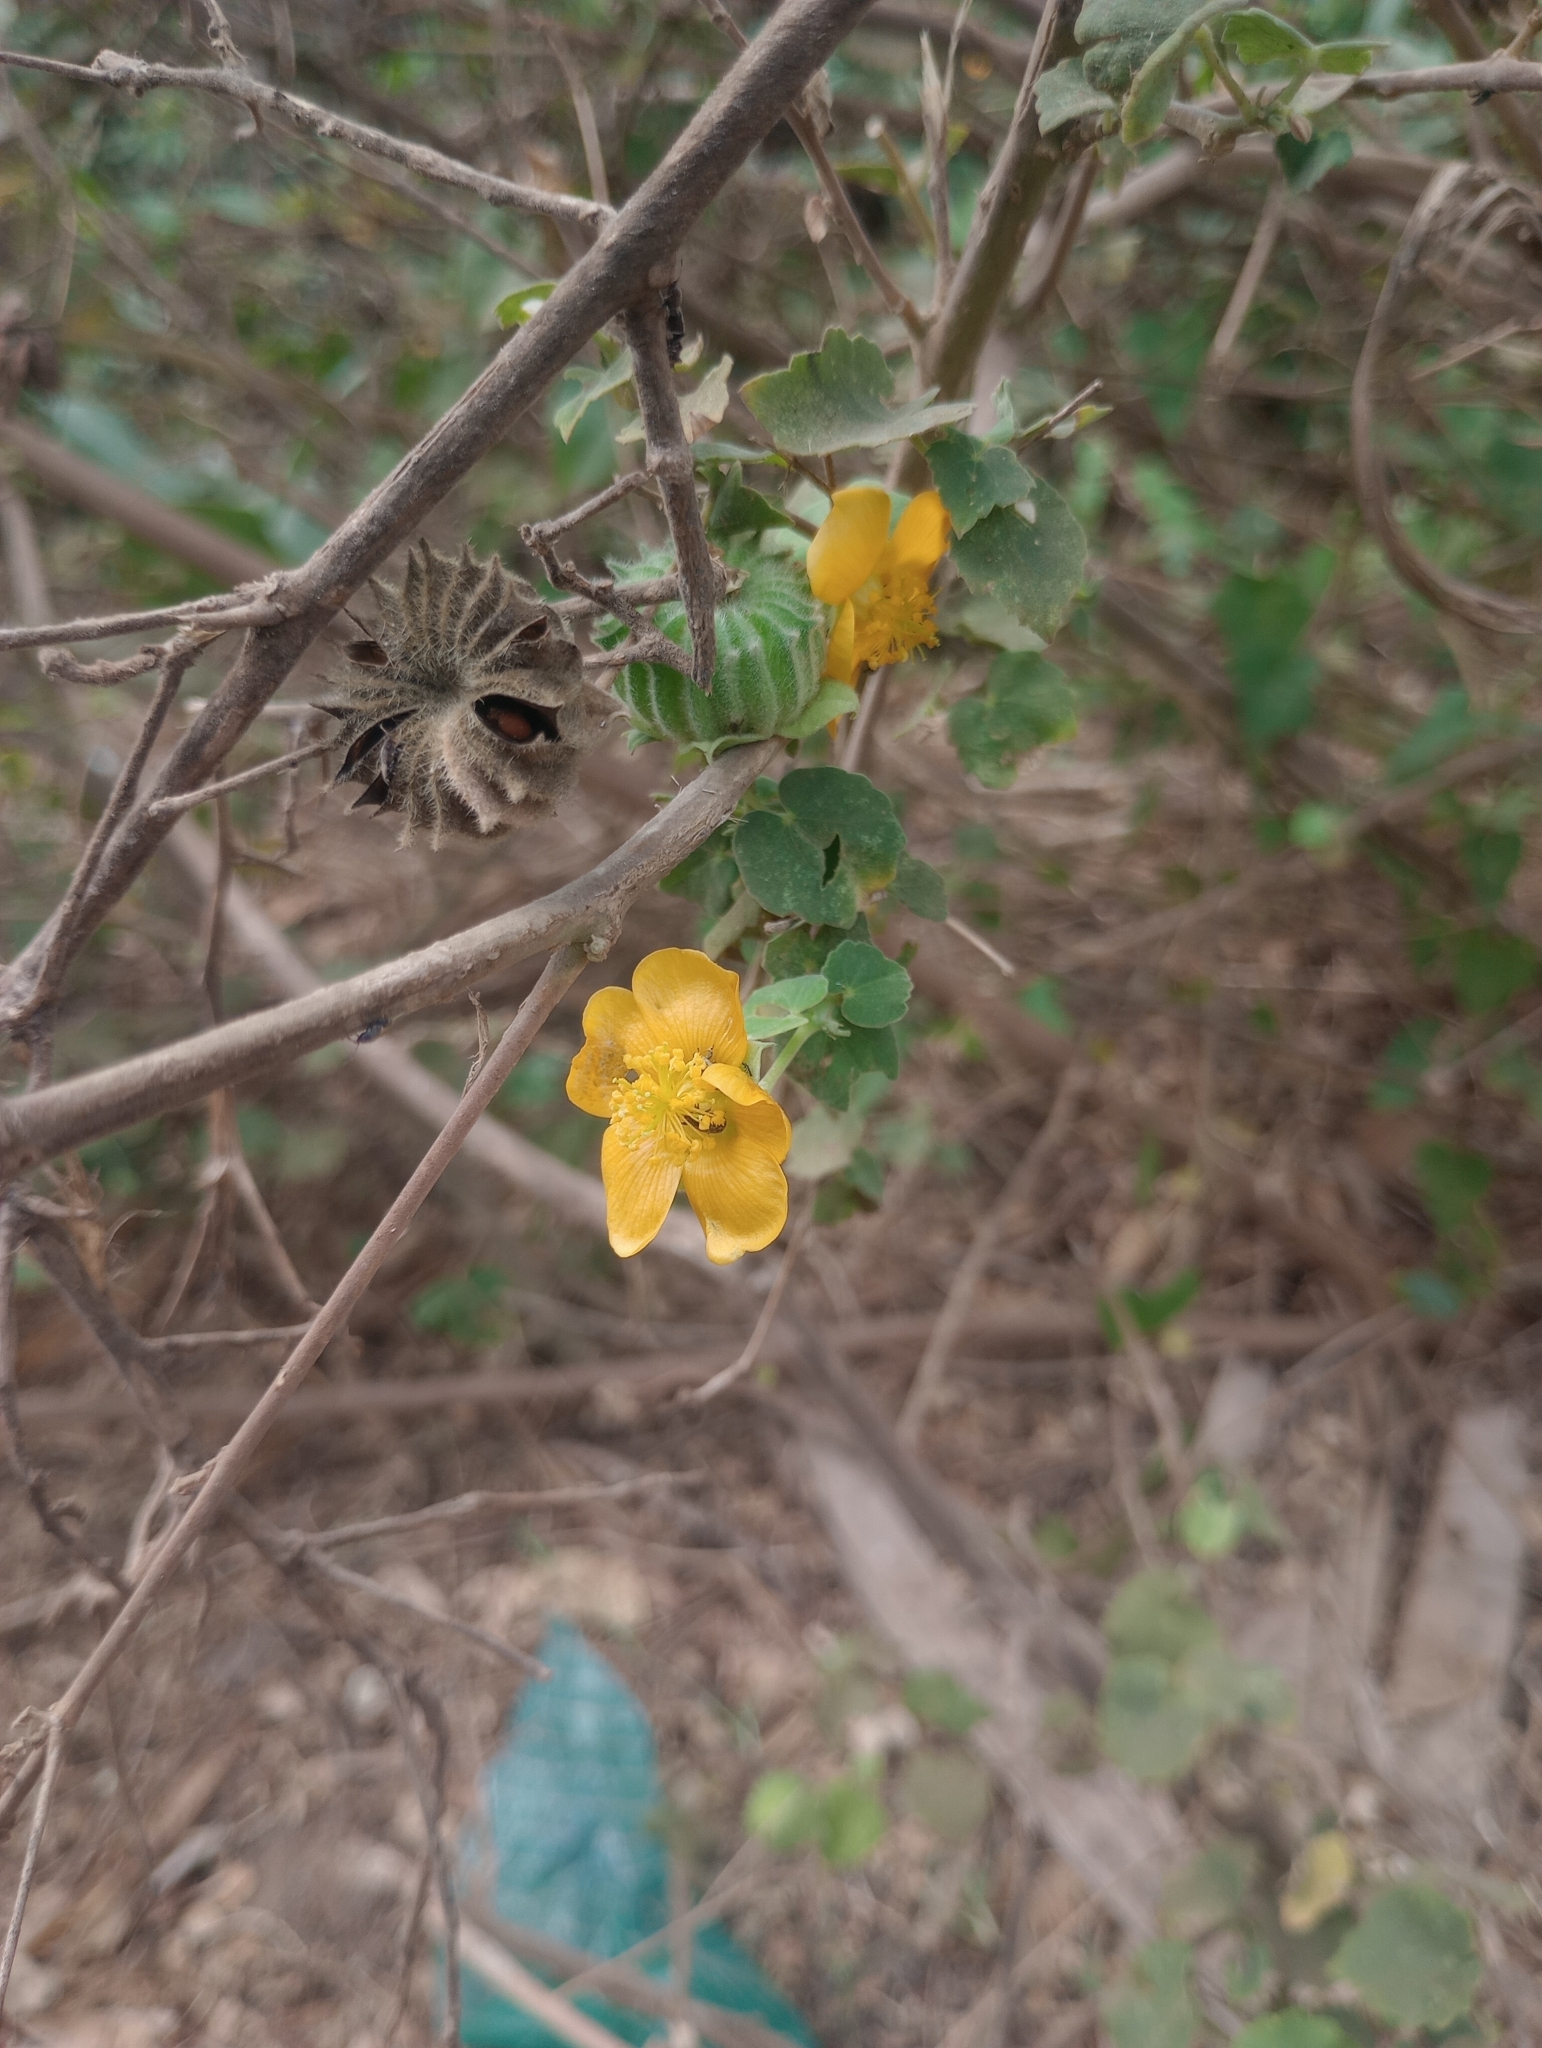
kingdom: Plantae
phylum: Tracheophyta
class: Magnoliopsida
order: Malvales
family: Malvaceae
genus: Abutilon
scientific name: Abutilon indicum
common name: Indian abutilon
